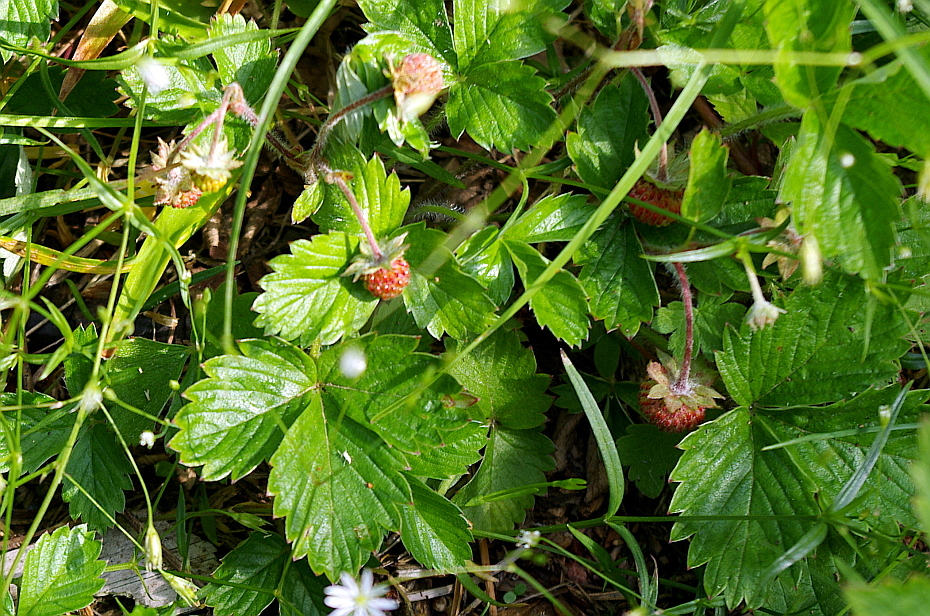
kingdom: Plantae
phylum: Tracheophyta
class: Magnoliopsida
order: Rosales
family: Rosaceae
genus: Fragaria
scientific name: Fragaria vesca
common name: Wild strawberry
